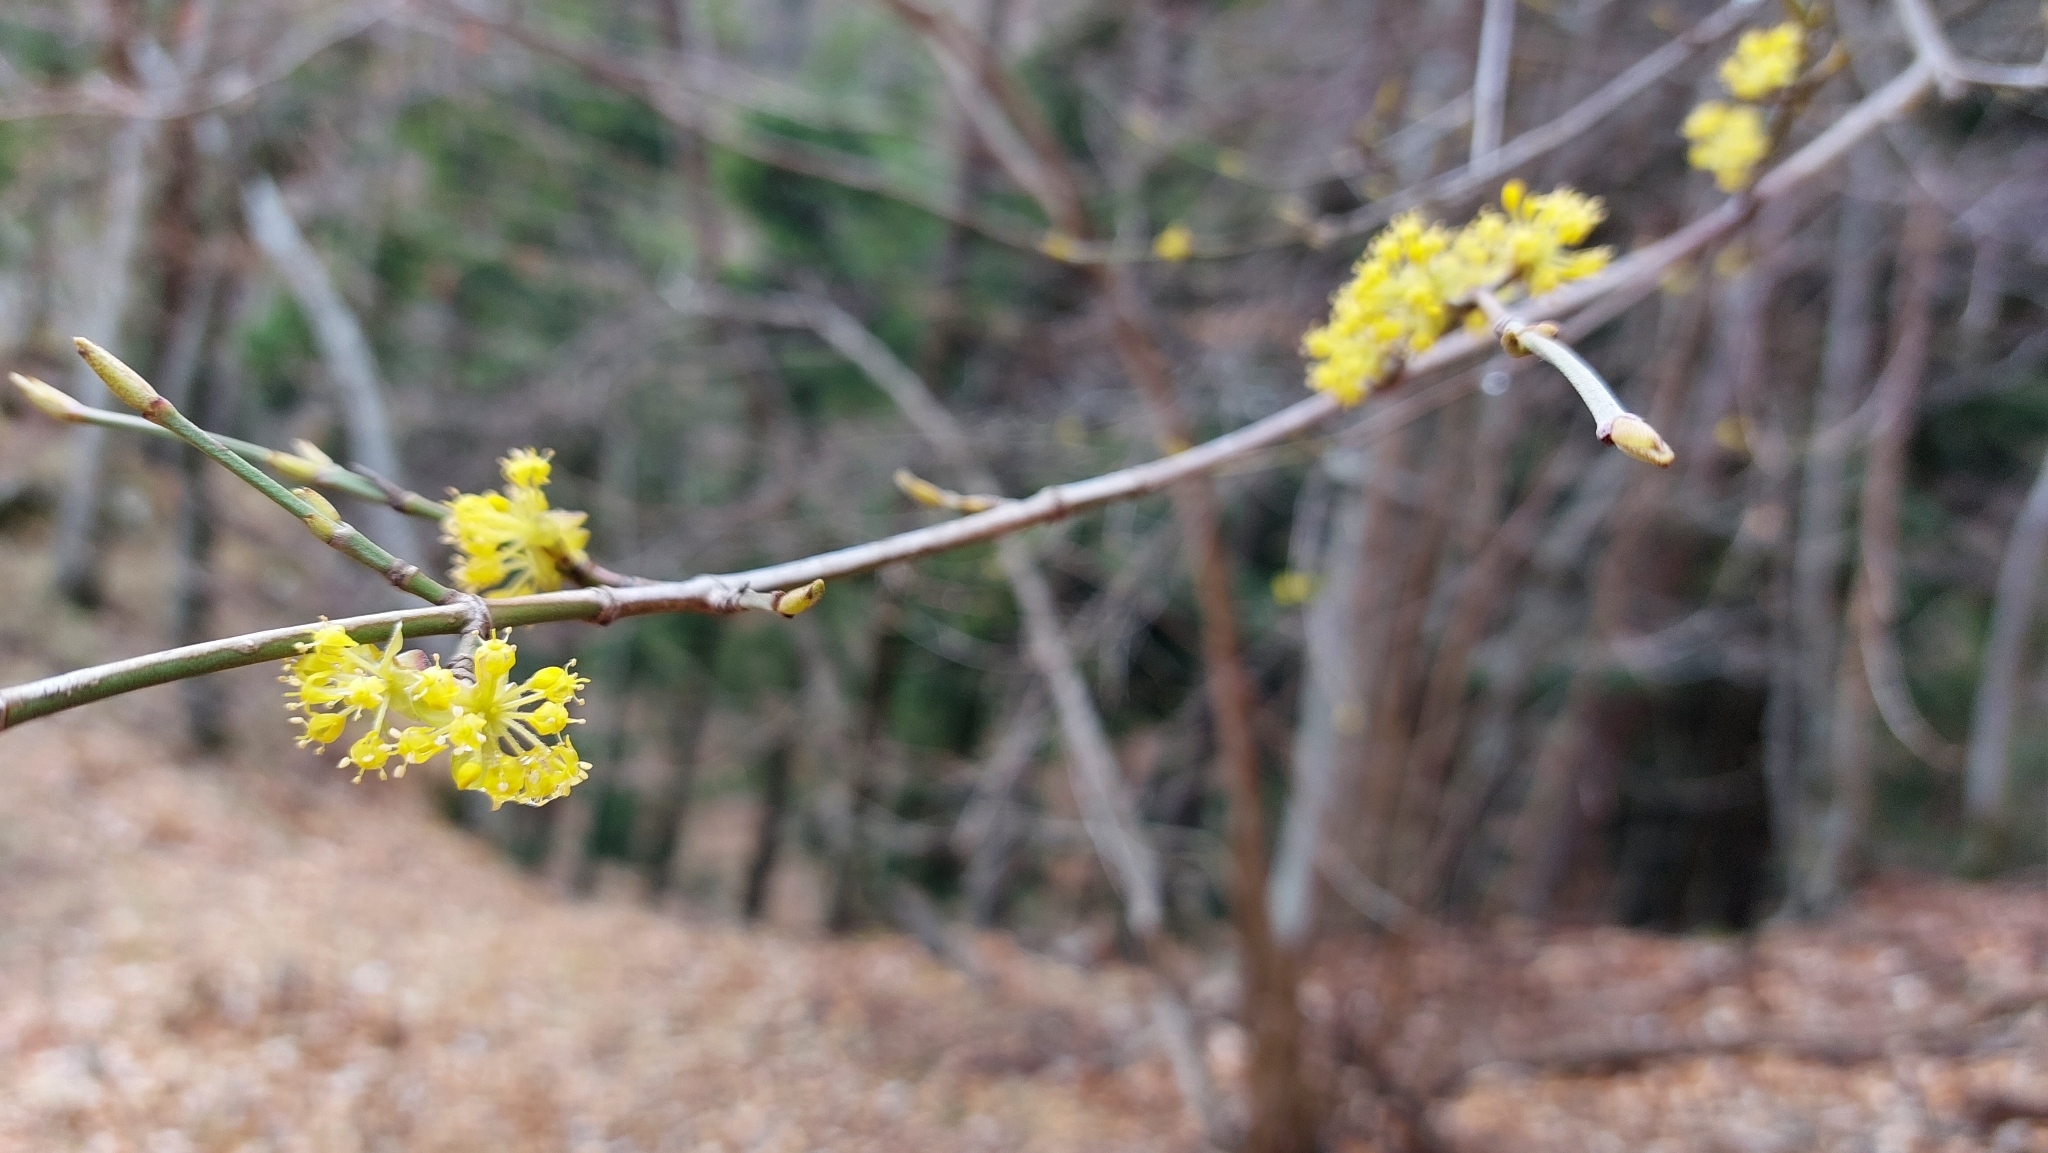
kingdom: Plantae
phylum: Tracheophyta
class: Magnoliopsida
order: Cornales
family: Cornaceae
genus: Cornus
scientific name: Cornus mas
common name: Cornelian-cherry
